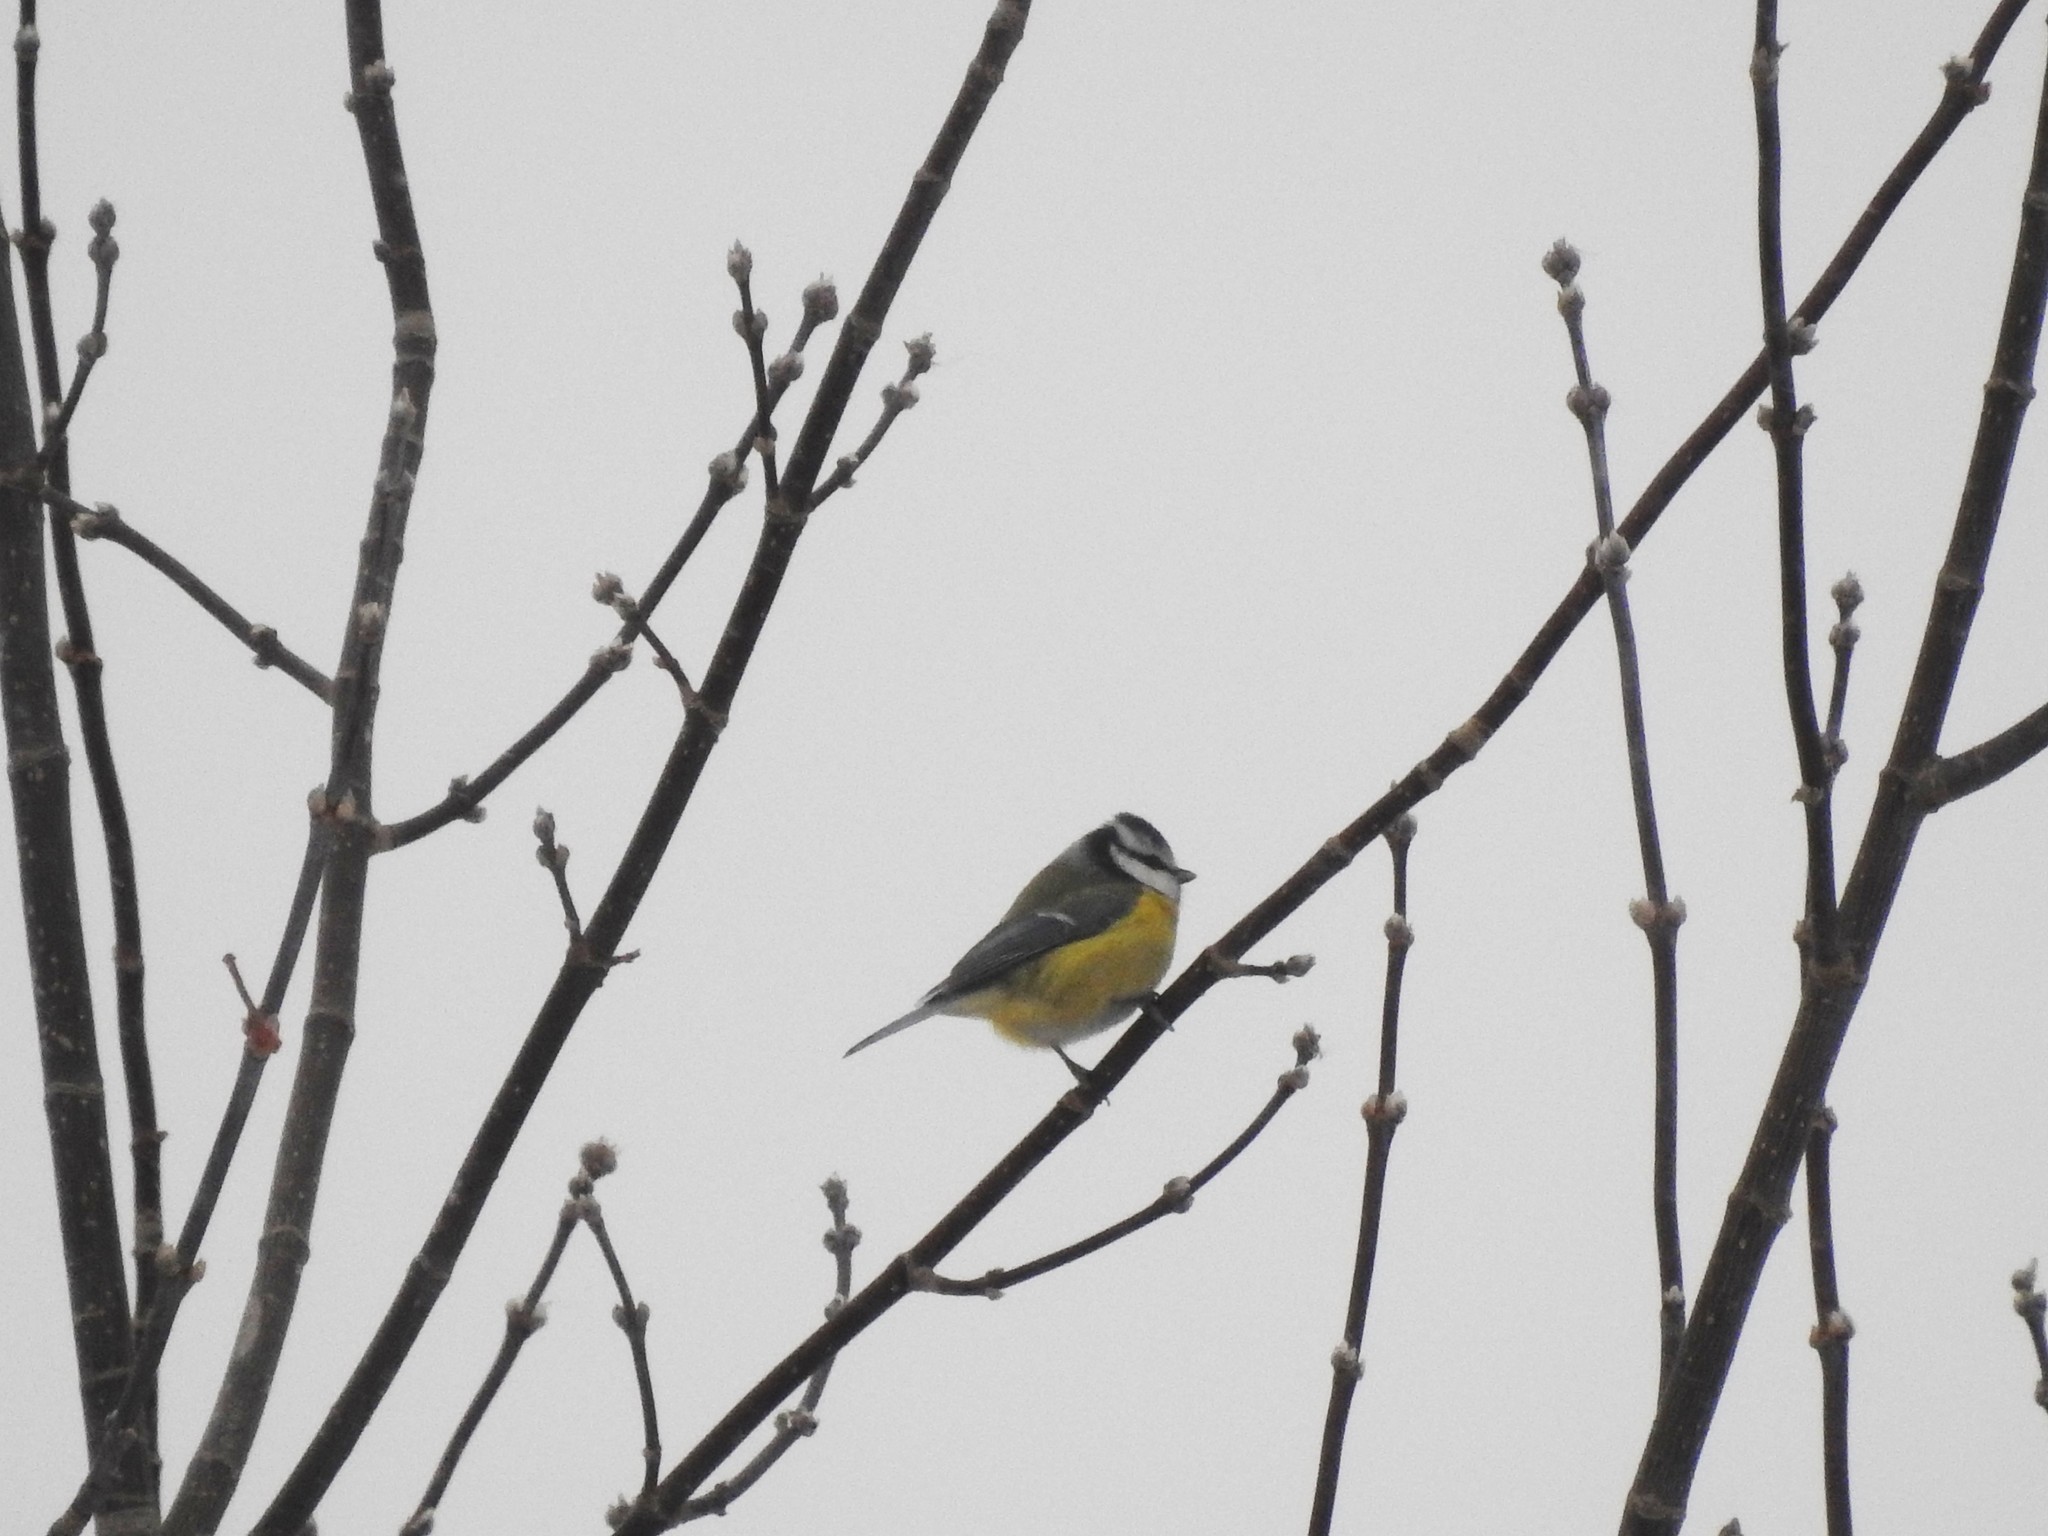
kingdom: Animalia
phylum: Chordata
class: Aves
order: Passeriformes
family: Paridae
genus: Cyanistes
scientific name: Cyanistes caeruleus
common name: Eurasian blue tit
